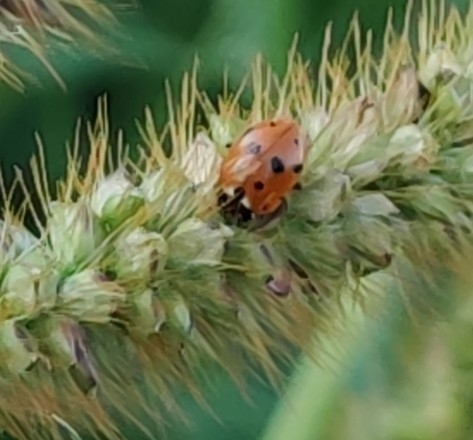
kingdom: Animalia
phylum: Arthropoda
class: Insecta
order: Coleoptera
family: Coccinellidae
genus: Hippodamia
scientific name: Hippodamia variegata
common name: Ladybird beetle
